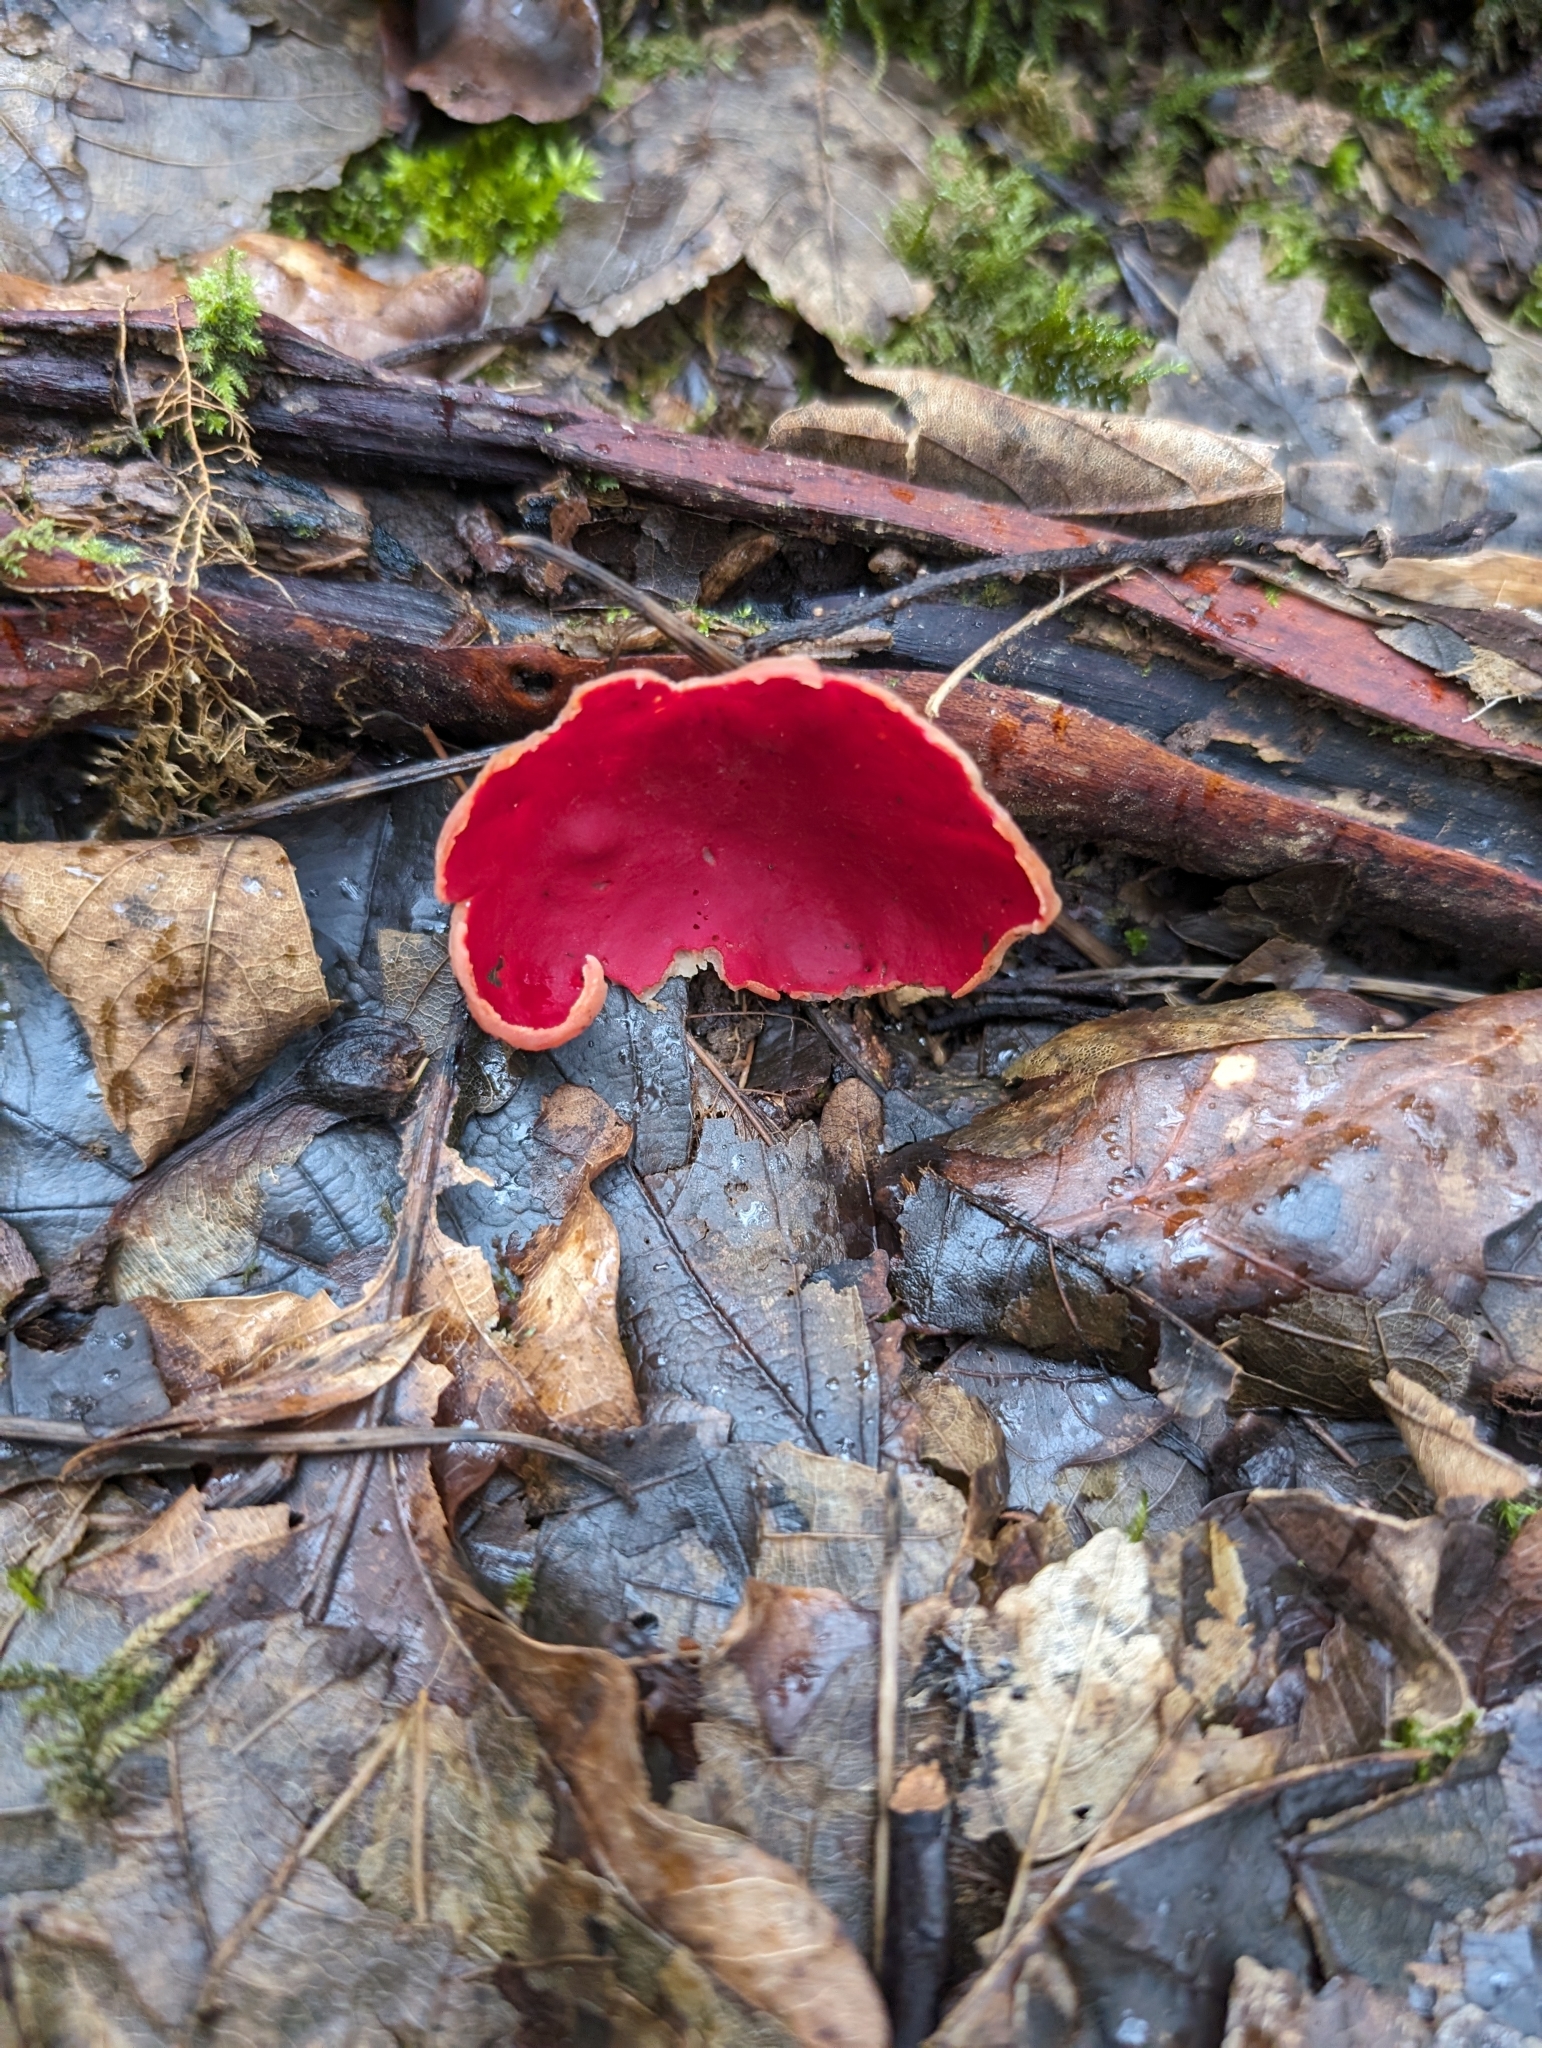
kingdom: Fungi
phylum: Ascomycota
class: Pezizomycetes
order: Pezizales
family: Sarcoscyphaceae
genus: Sarcoscypha
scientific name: Sarcoscypha
